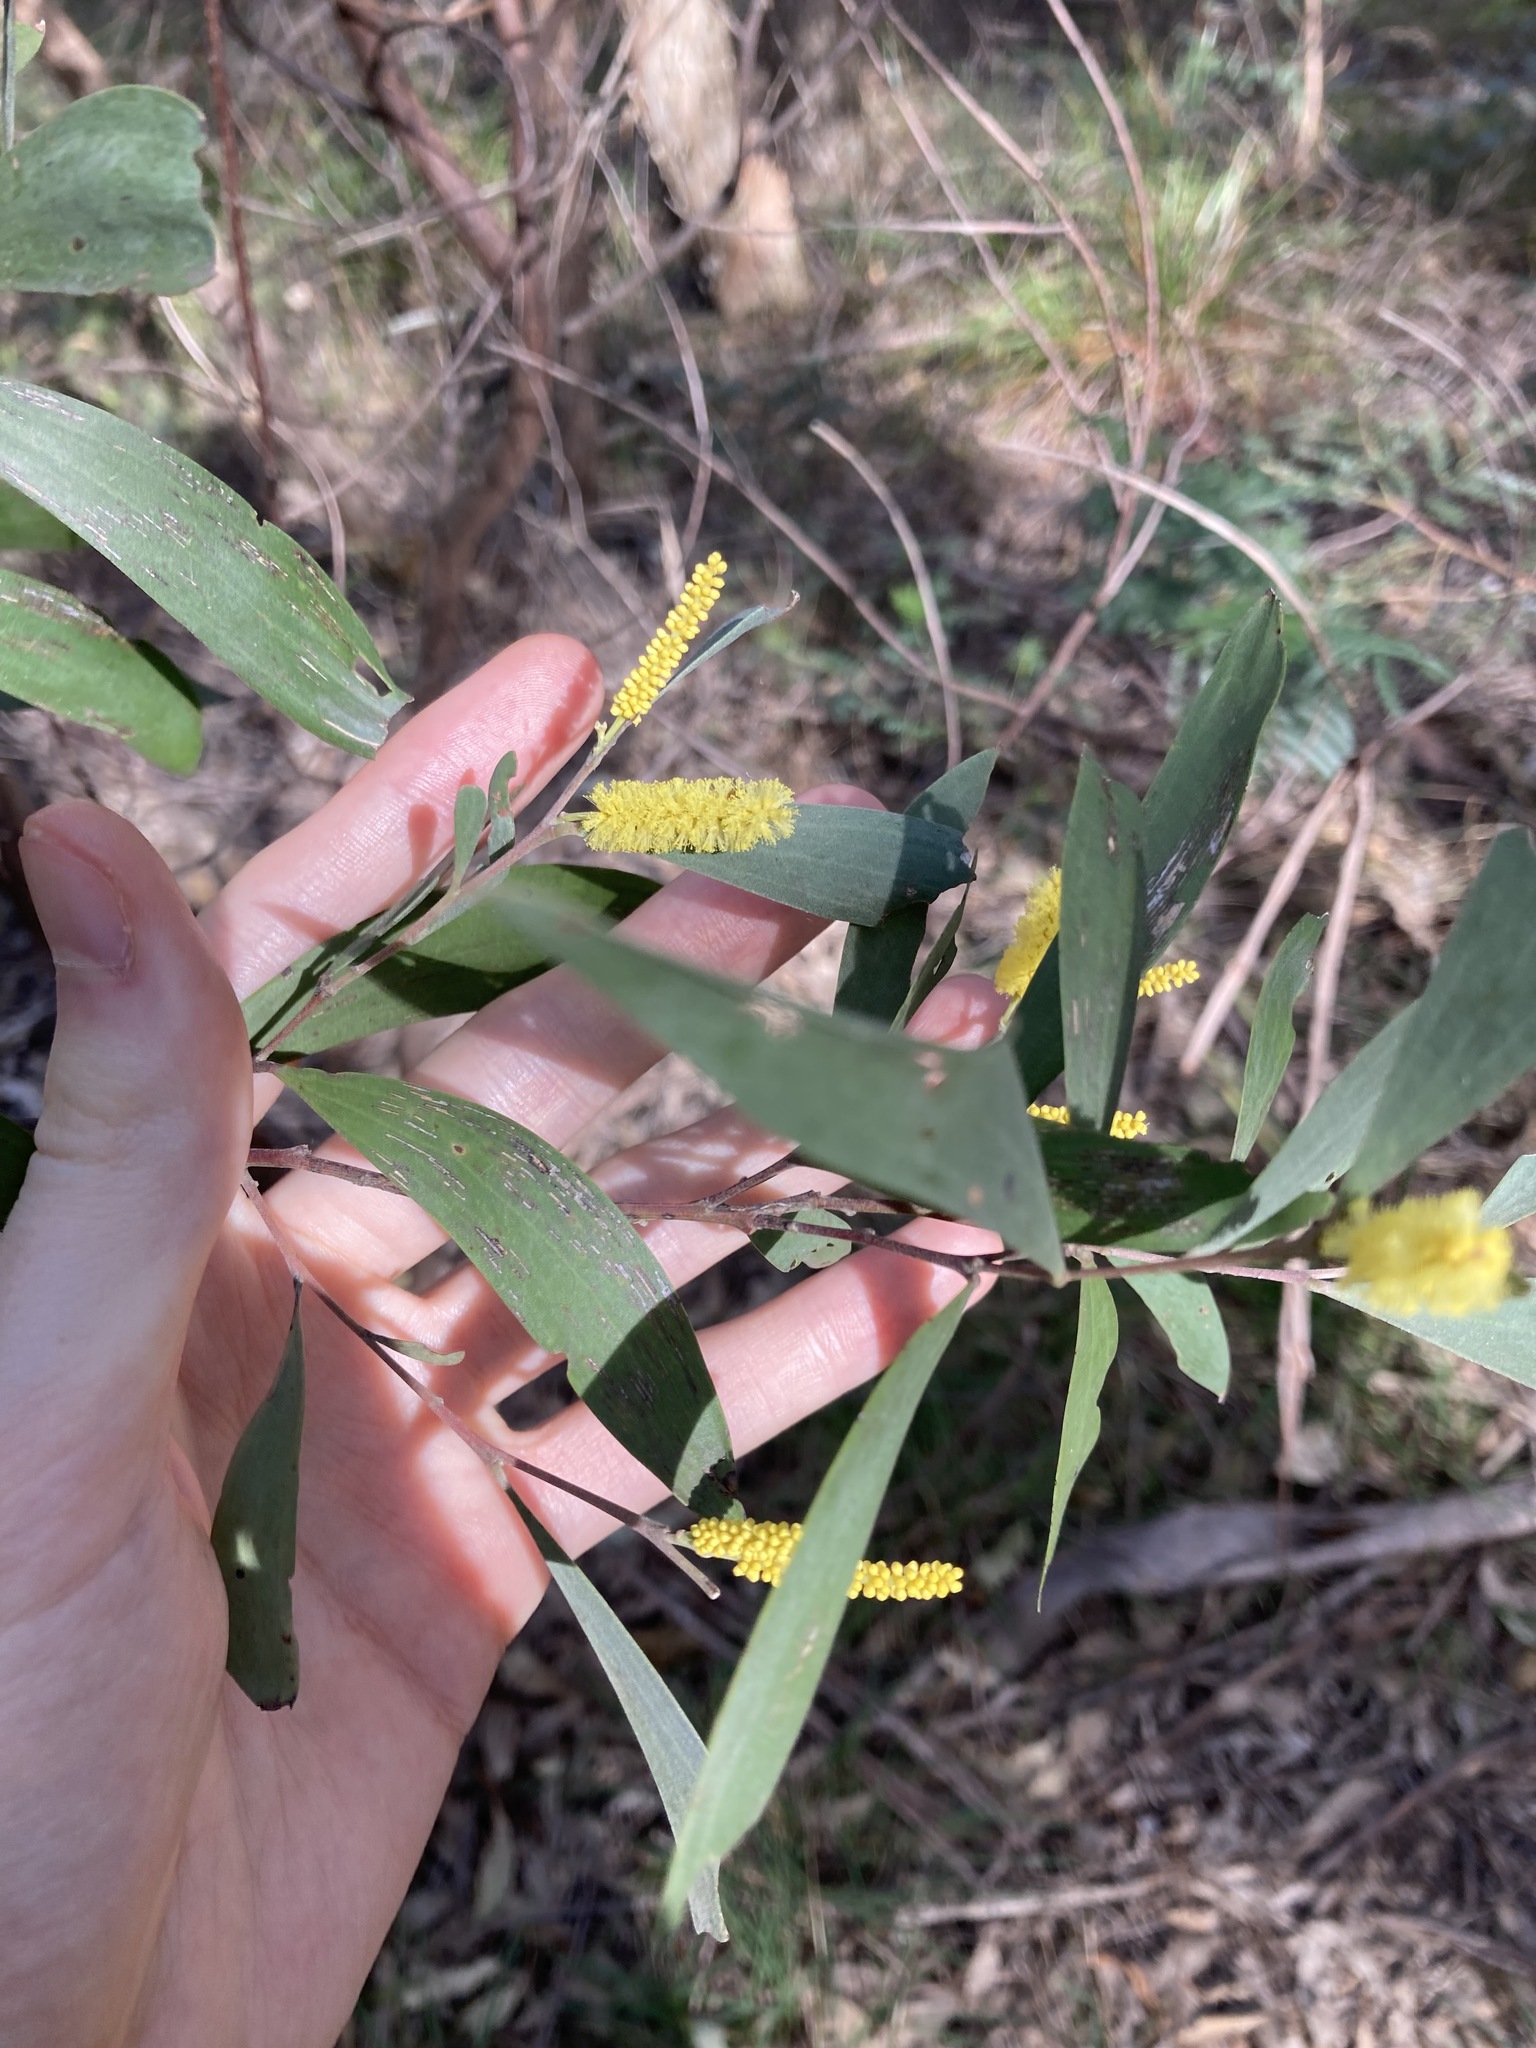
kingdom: Plantae
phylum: Tracheophyta
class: Magnoliopsida
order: Fabales
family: Fabaceae
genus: Acacia
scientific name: Acacia binervia
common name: Coast myall
